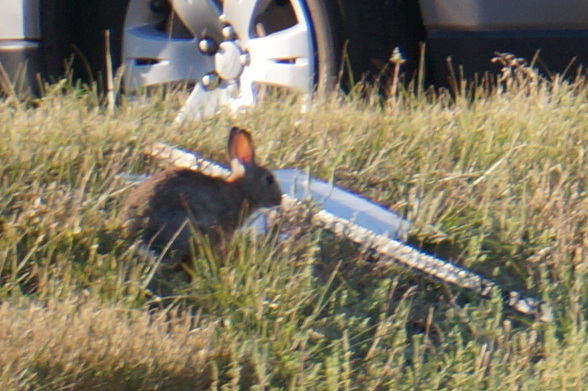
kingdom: Animalia
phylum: Chordata
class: Mammalia
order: Lagomorpha
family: Leporidae
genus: Sylvilagus
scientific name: Sylvilagus nuttallii
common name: Mountain cottontail
